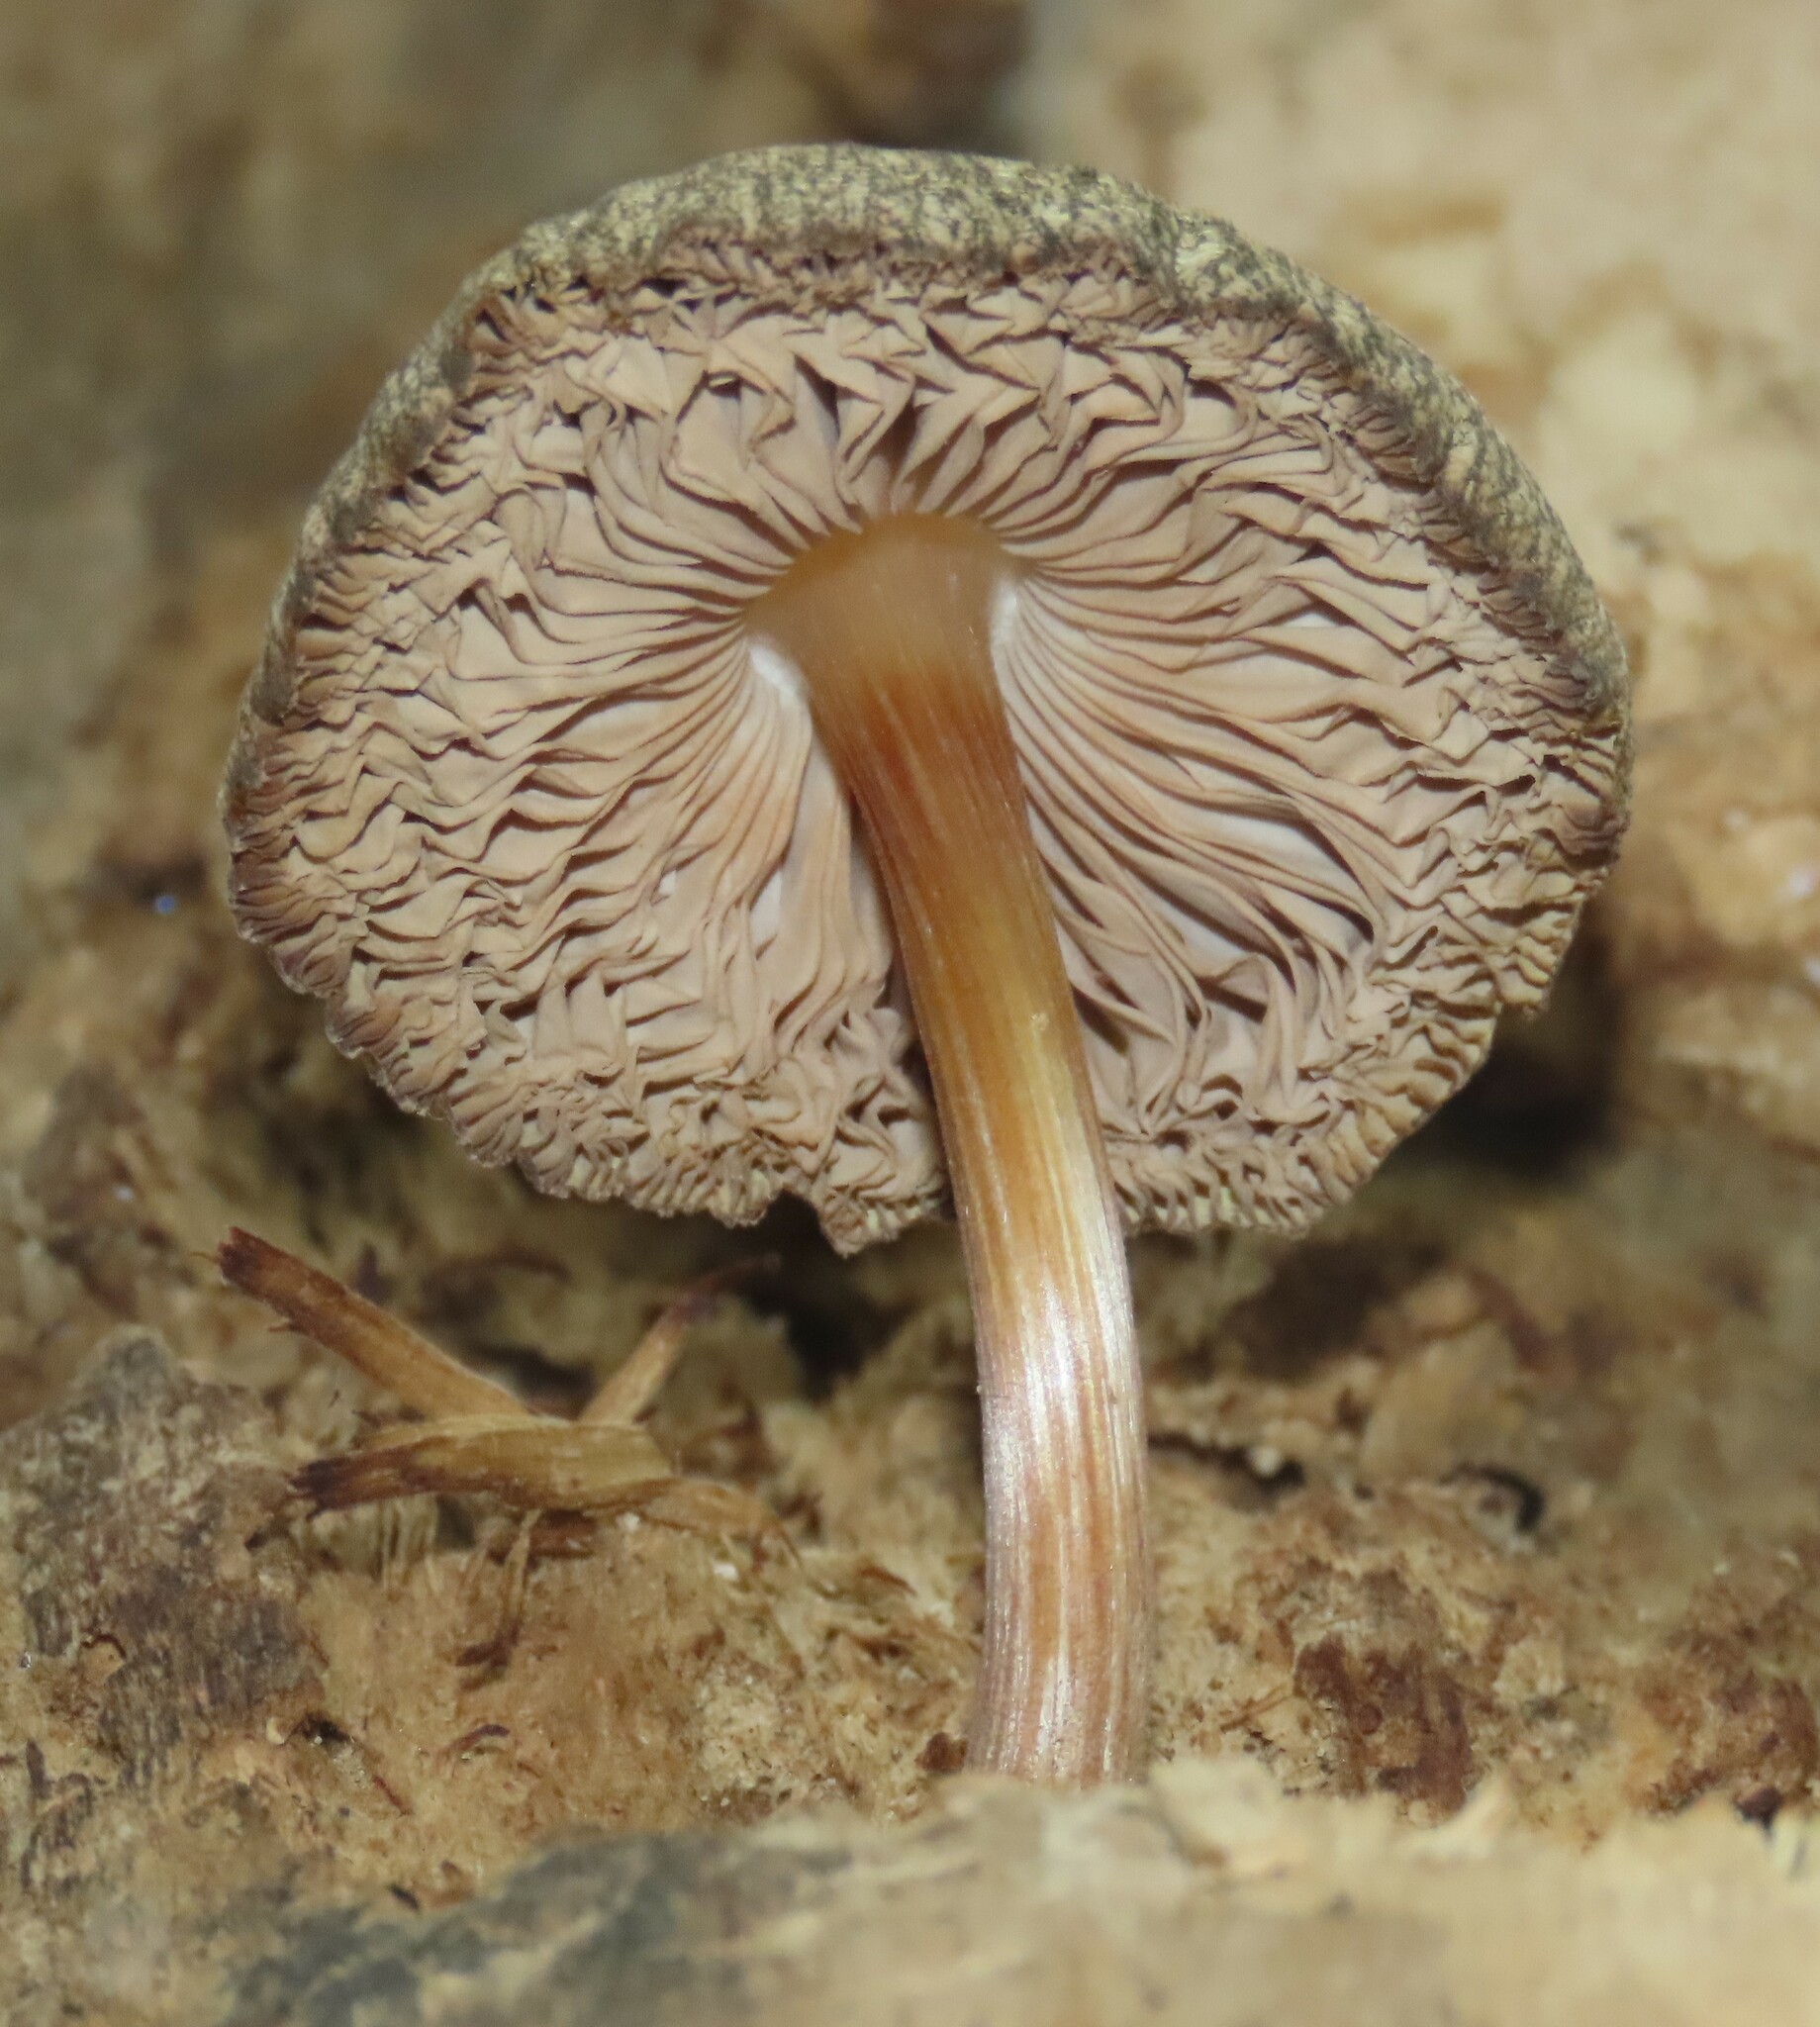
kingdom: Fungi
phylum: Basidiomycota
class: Agaricomycetes
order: Agaricales
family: Pluteaceae
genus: Pluteus
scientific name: Pluteus readiarum
